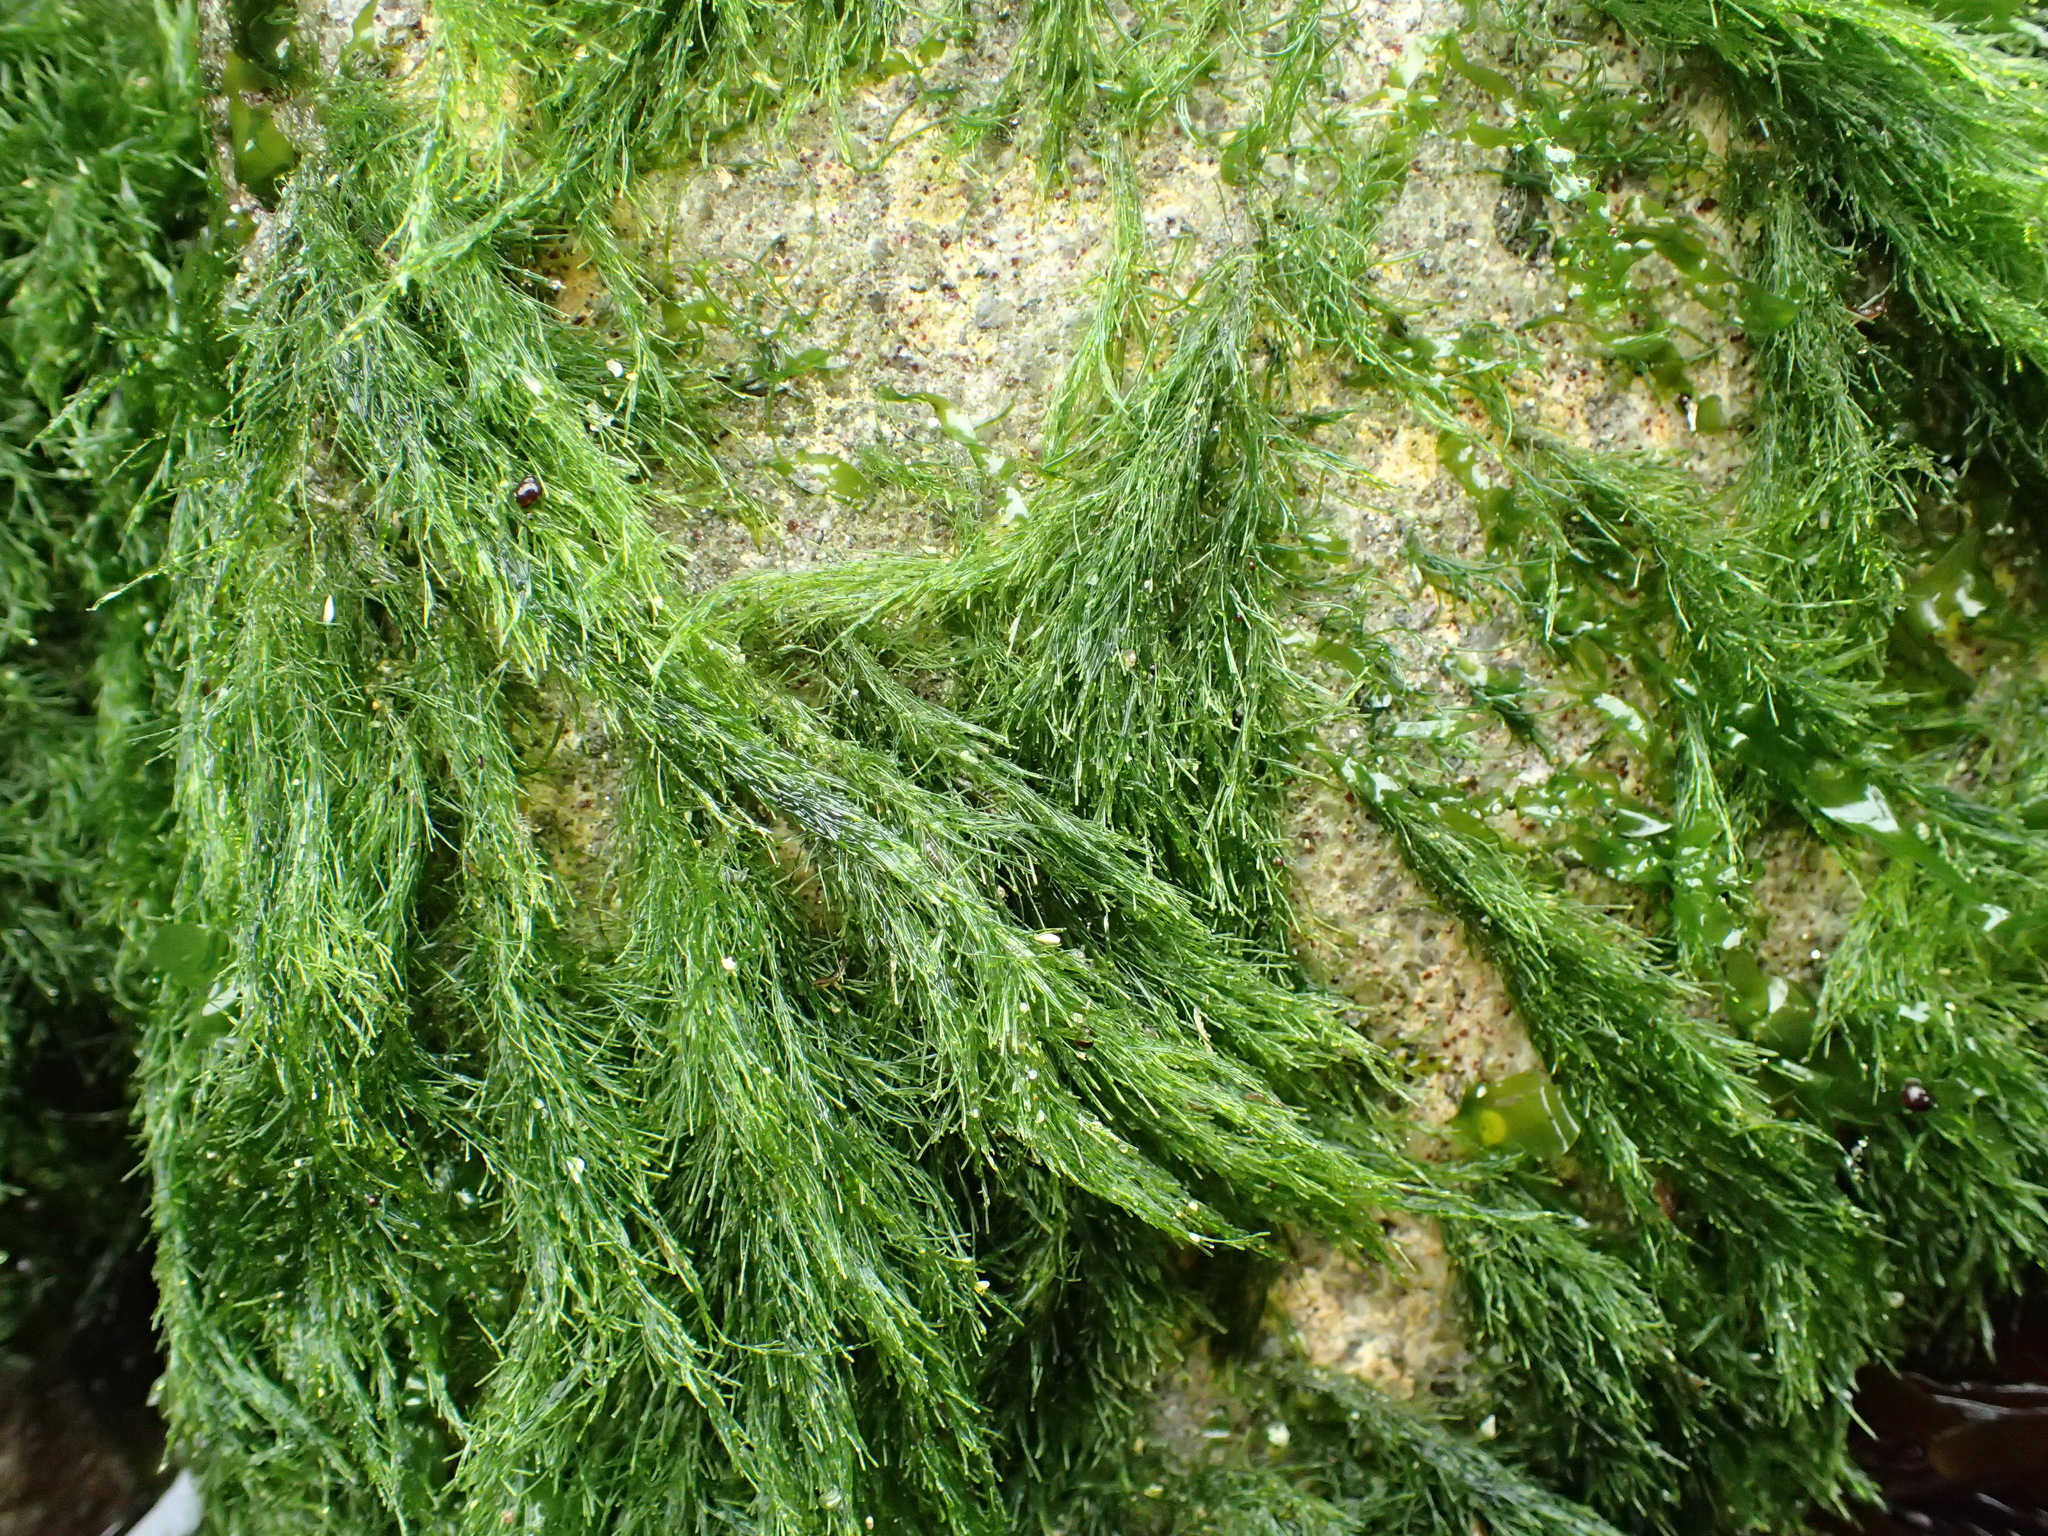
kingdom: Plantae
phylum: Chlorophyta
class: Ulvophyceae
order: Ulotrichales
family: Ulotrichaceae
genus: Acrosiphonia
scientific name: Acrosiphonia
